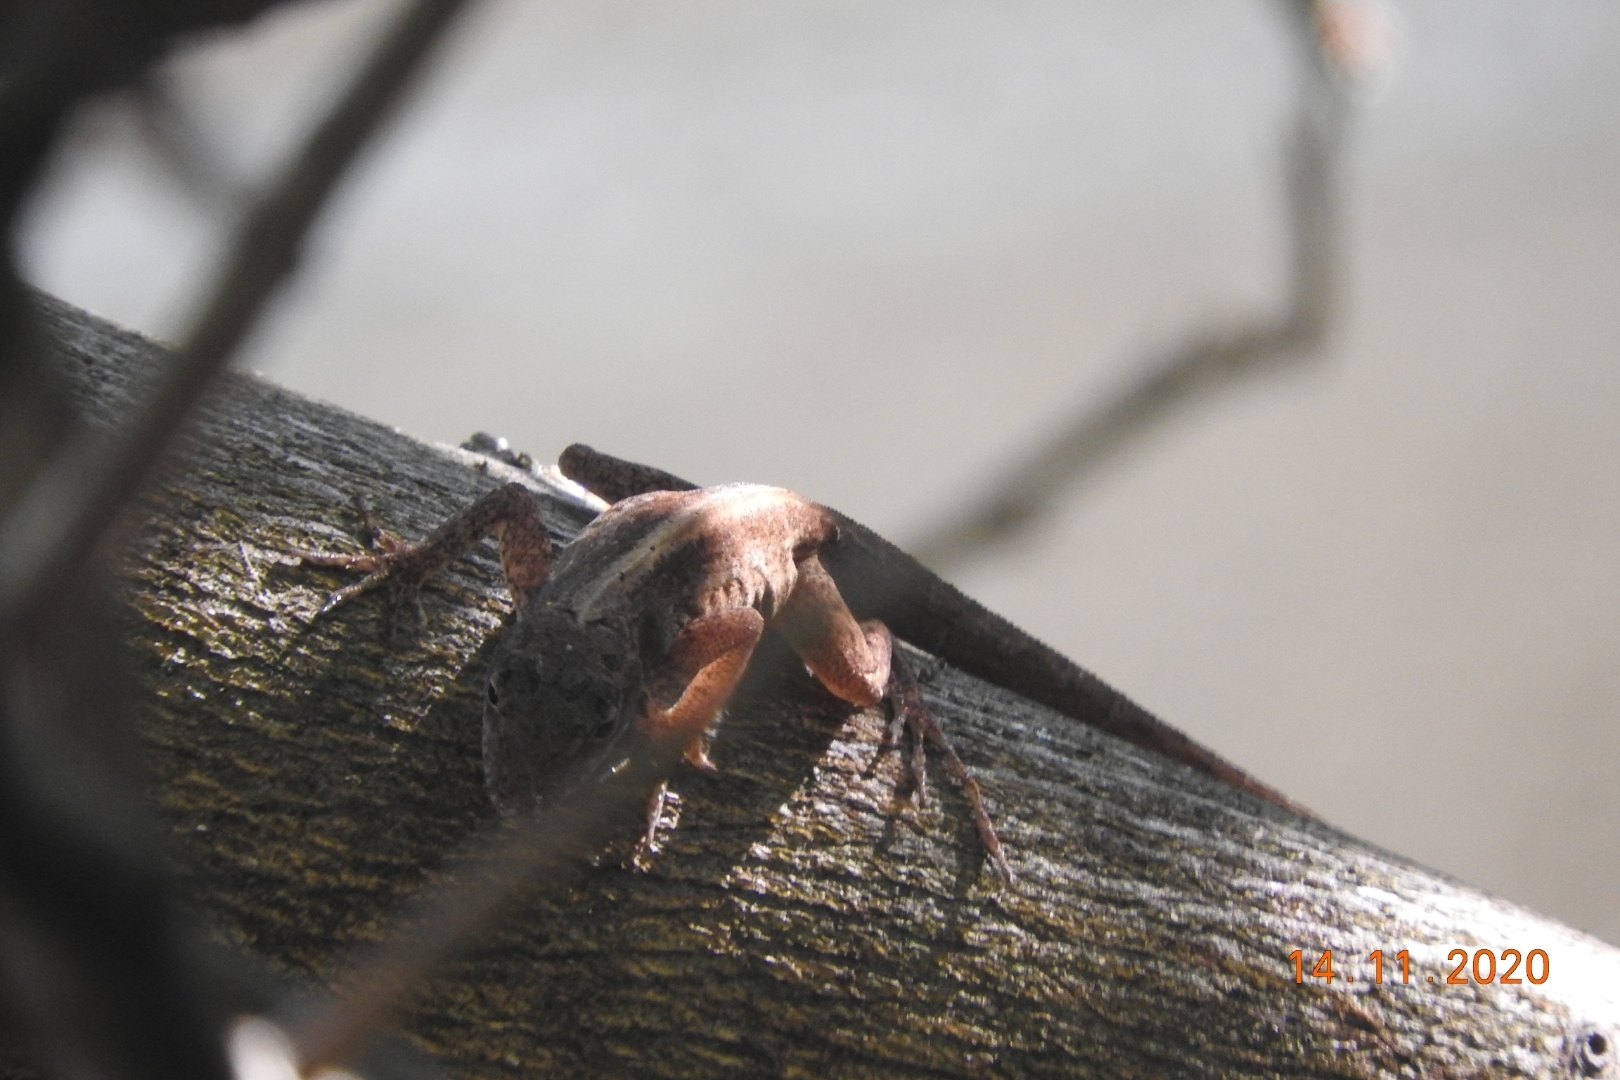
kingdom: Animalia
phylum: Chordata
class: Squamata
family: Dactyloidae
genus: Anolis
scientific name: Anolis sagrei
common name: Brown anole
